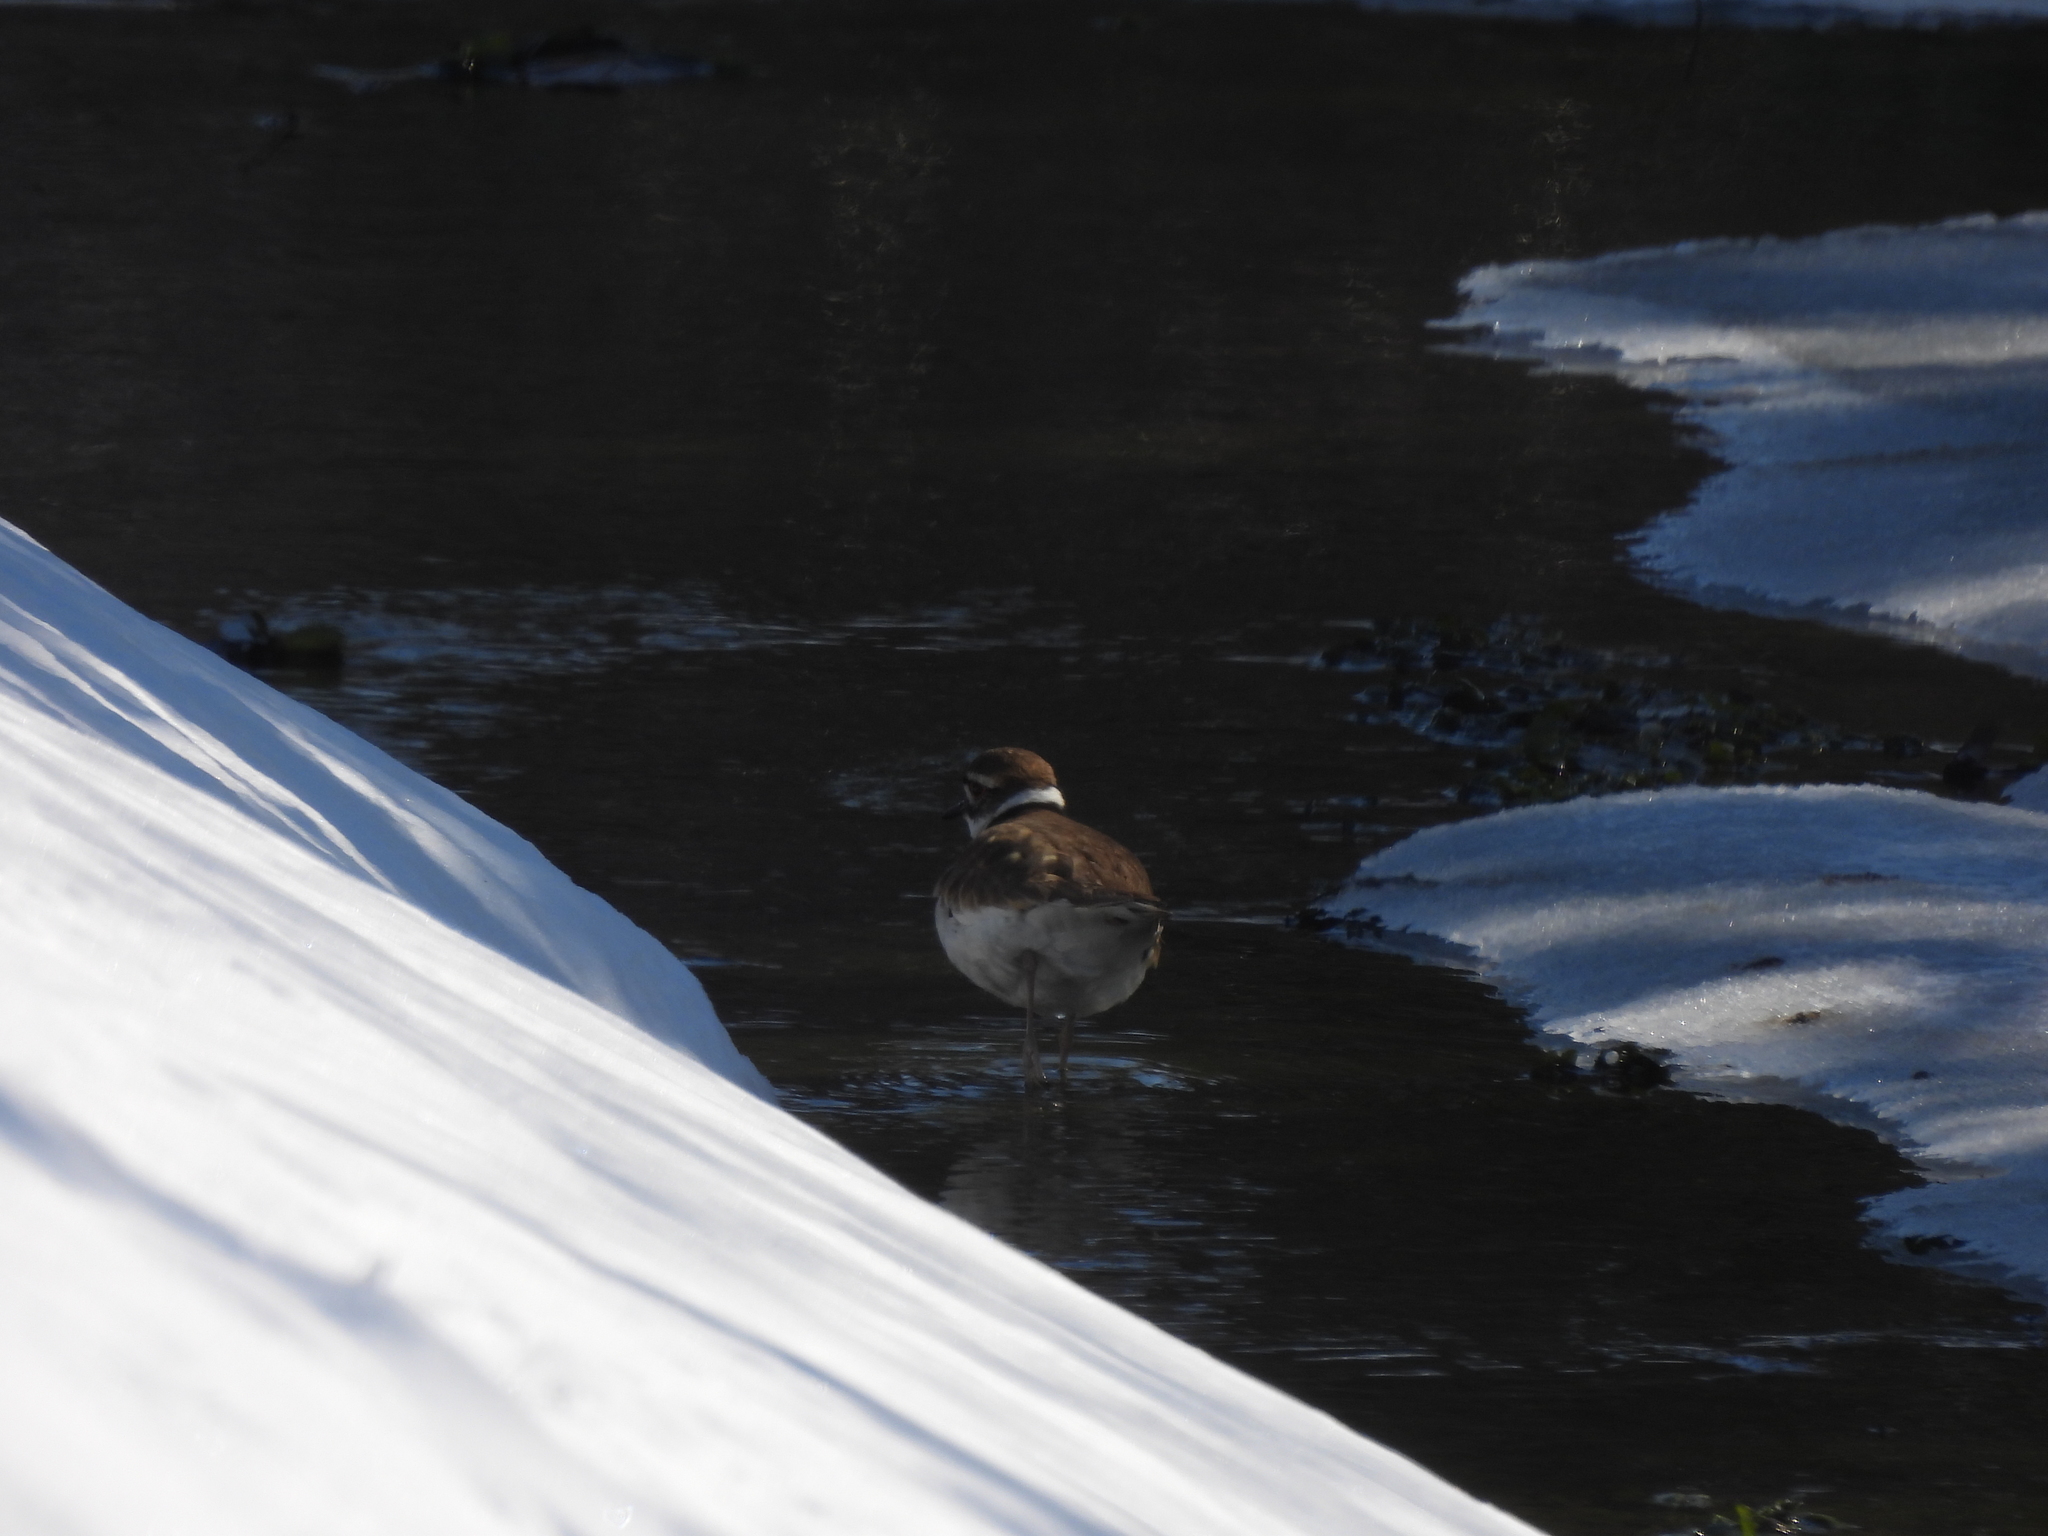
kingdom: Animalia
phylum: Chordata
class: Aves
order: Charadriiformes
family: Charadriidae
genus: Charadrius
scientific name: Charadrius vociferus
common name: Killdeer
